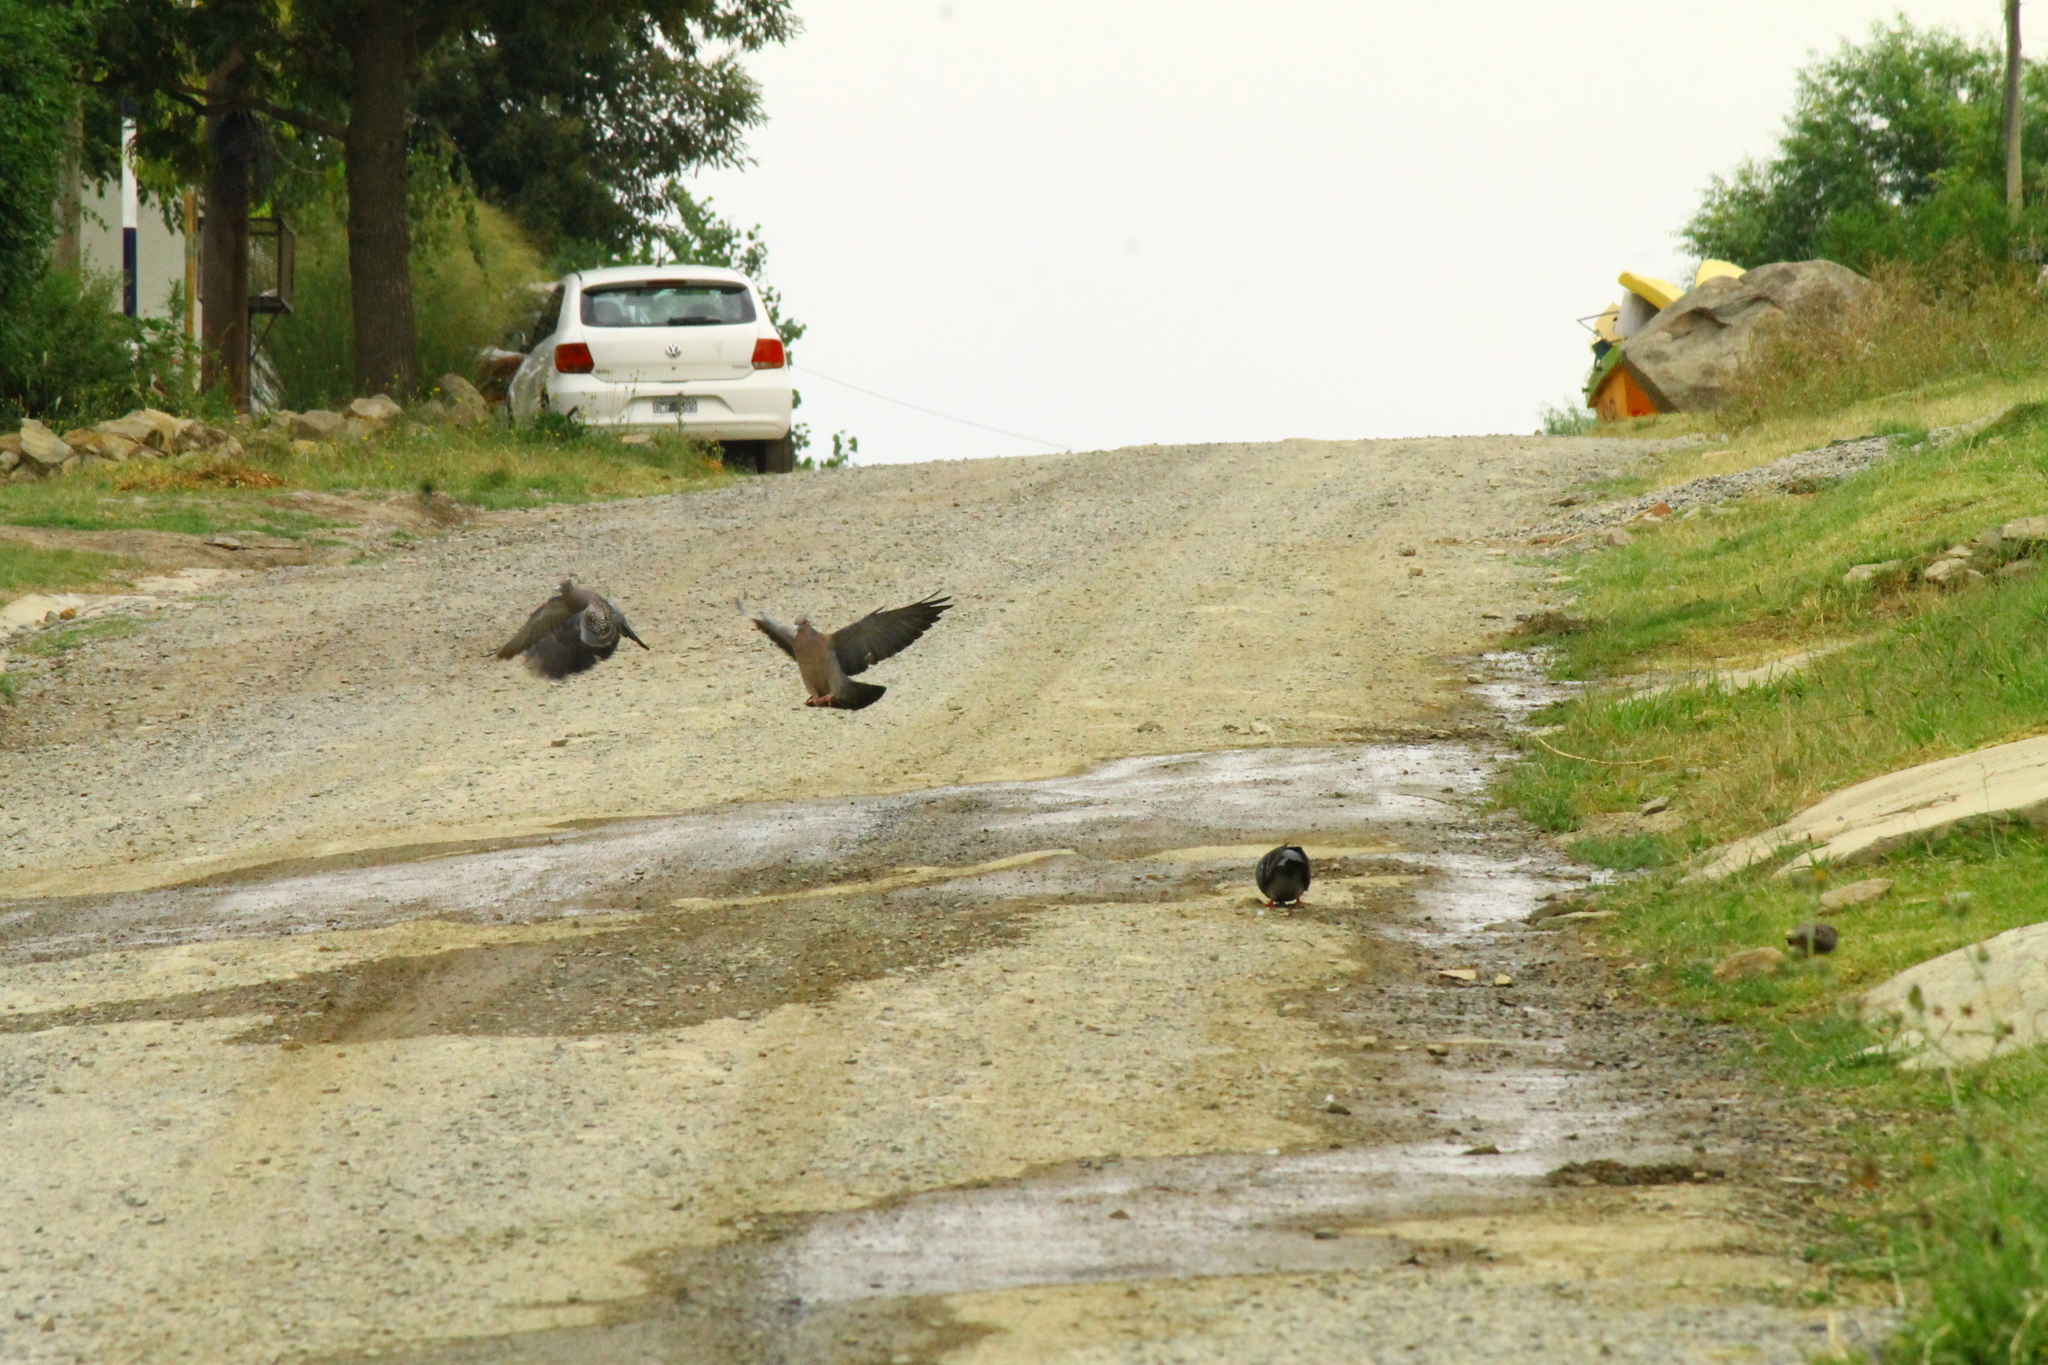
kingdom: Animalia
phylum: Chordata
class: Aves
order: Columbiformes
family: Columbidae
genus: Patagioenas
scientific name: Patagioenas picazuro
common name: Picazuro pigeon
